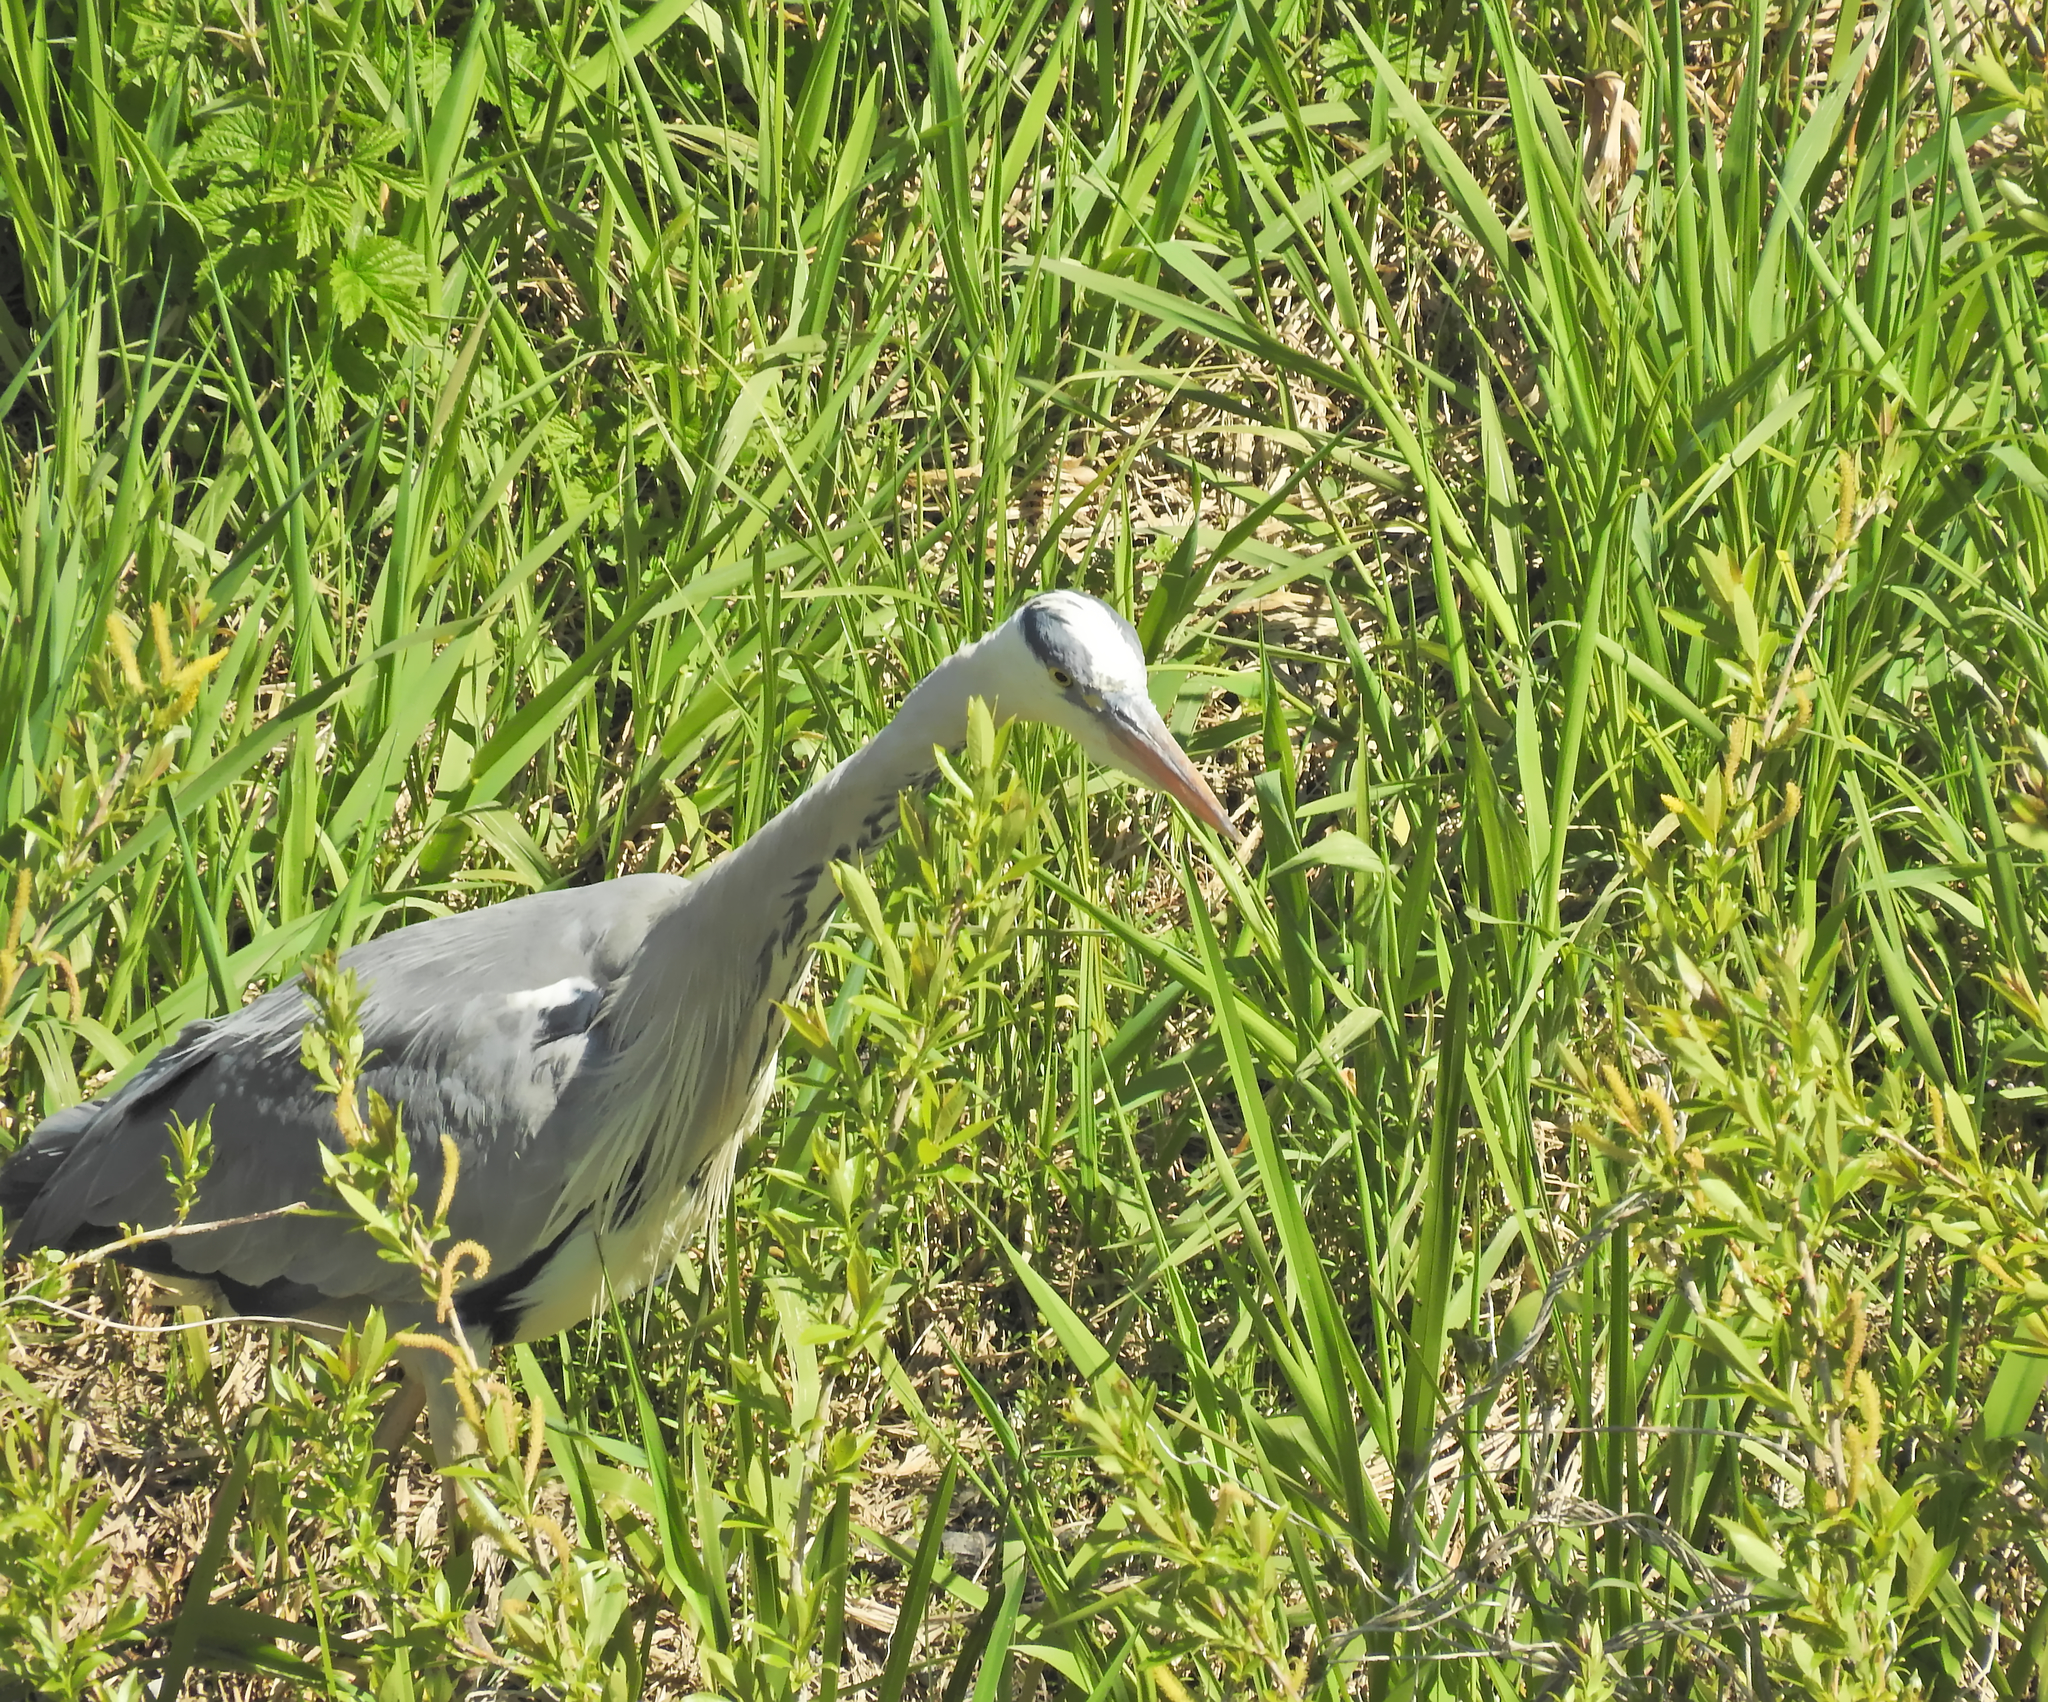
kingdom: Animalia
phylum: Chordata
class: Aves
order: Pelecaniformes
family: Ardeidae
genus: Ardea
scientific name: Ardea cinerea
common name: Grey heron
